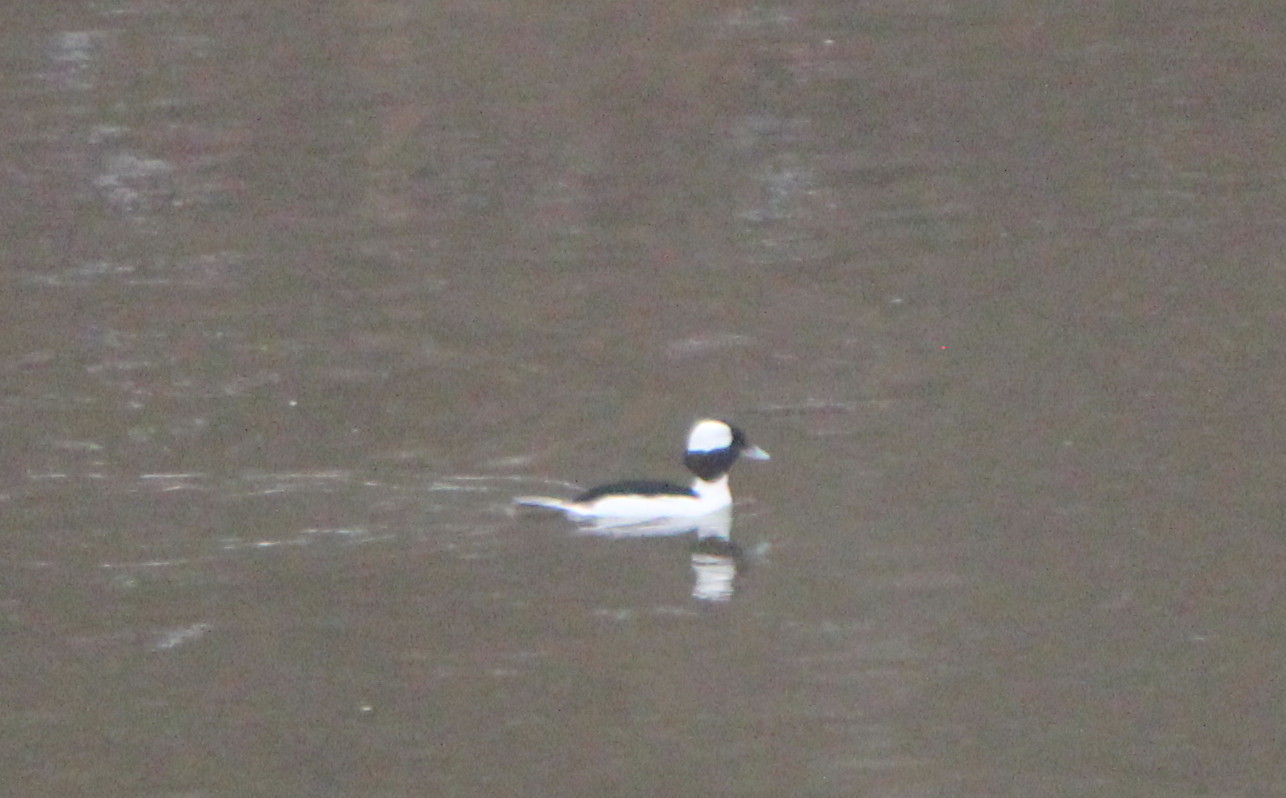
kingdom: Animalia
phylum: Chordata
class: Aves
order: Anseriformes
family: Anatidae
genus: Bucephala
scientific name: Bucephala albeola
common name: Bufflehead
